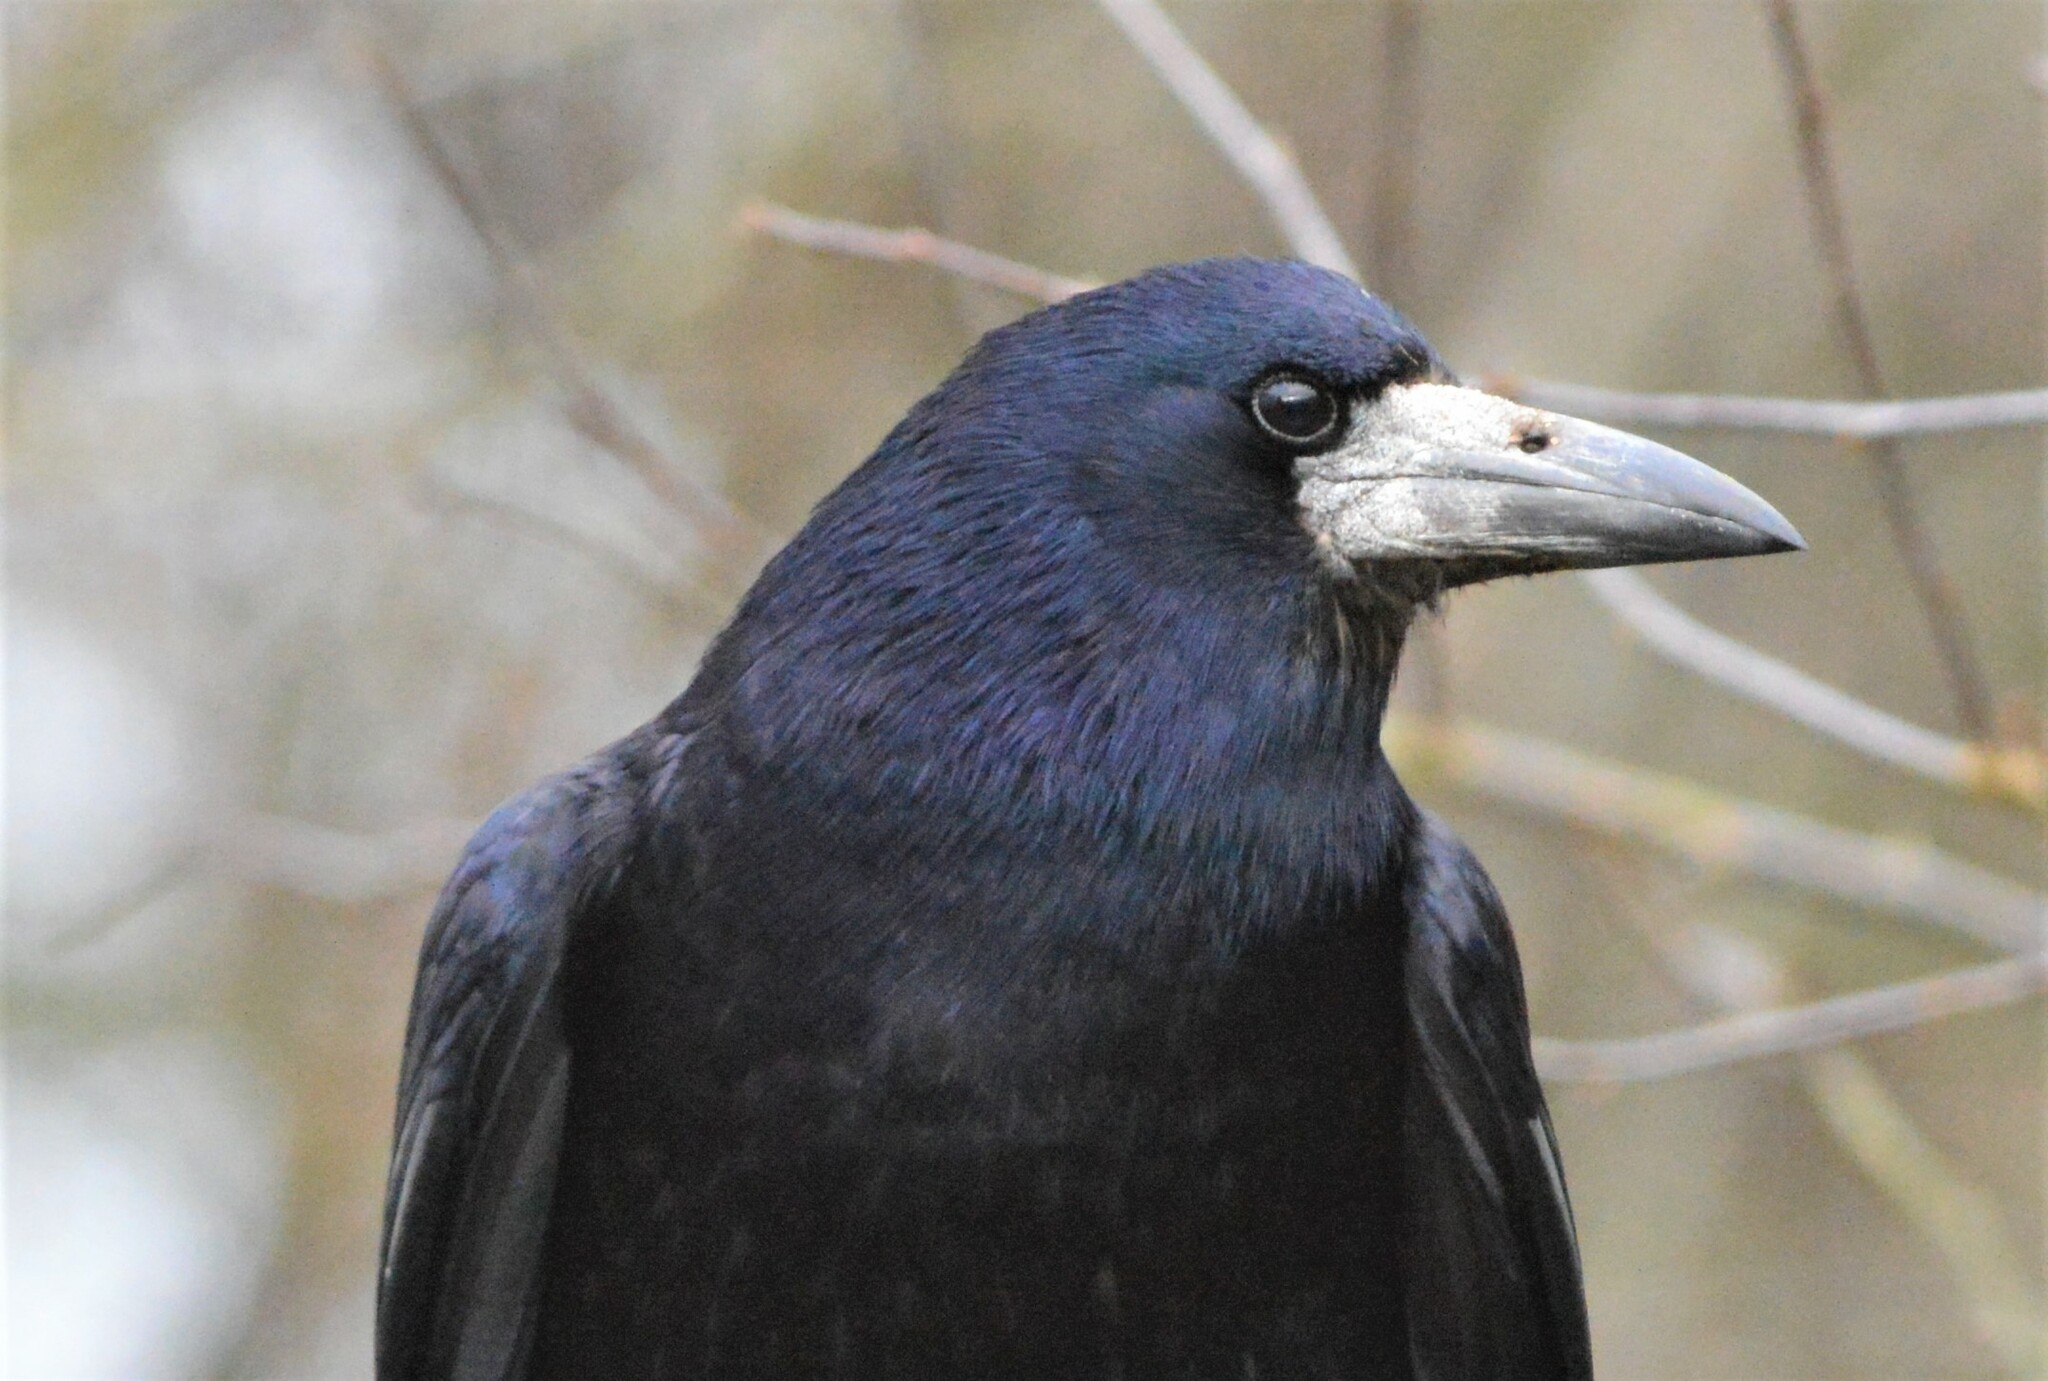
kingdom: Animalia
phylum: Chordata
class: Aves
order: Passeriformes
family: Corvidae
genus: Corvus
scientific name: Corvus frugilegus
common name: Rook
